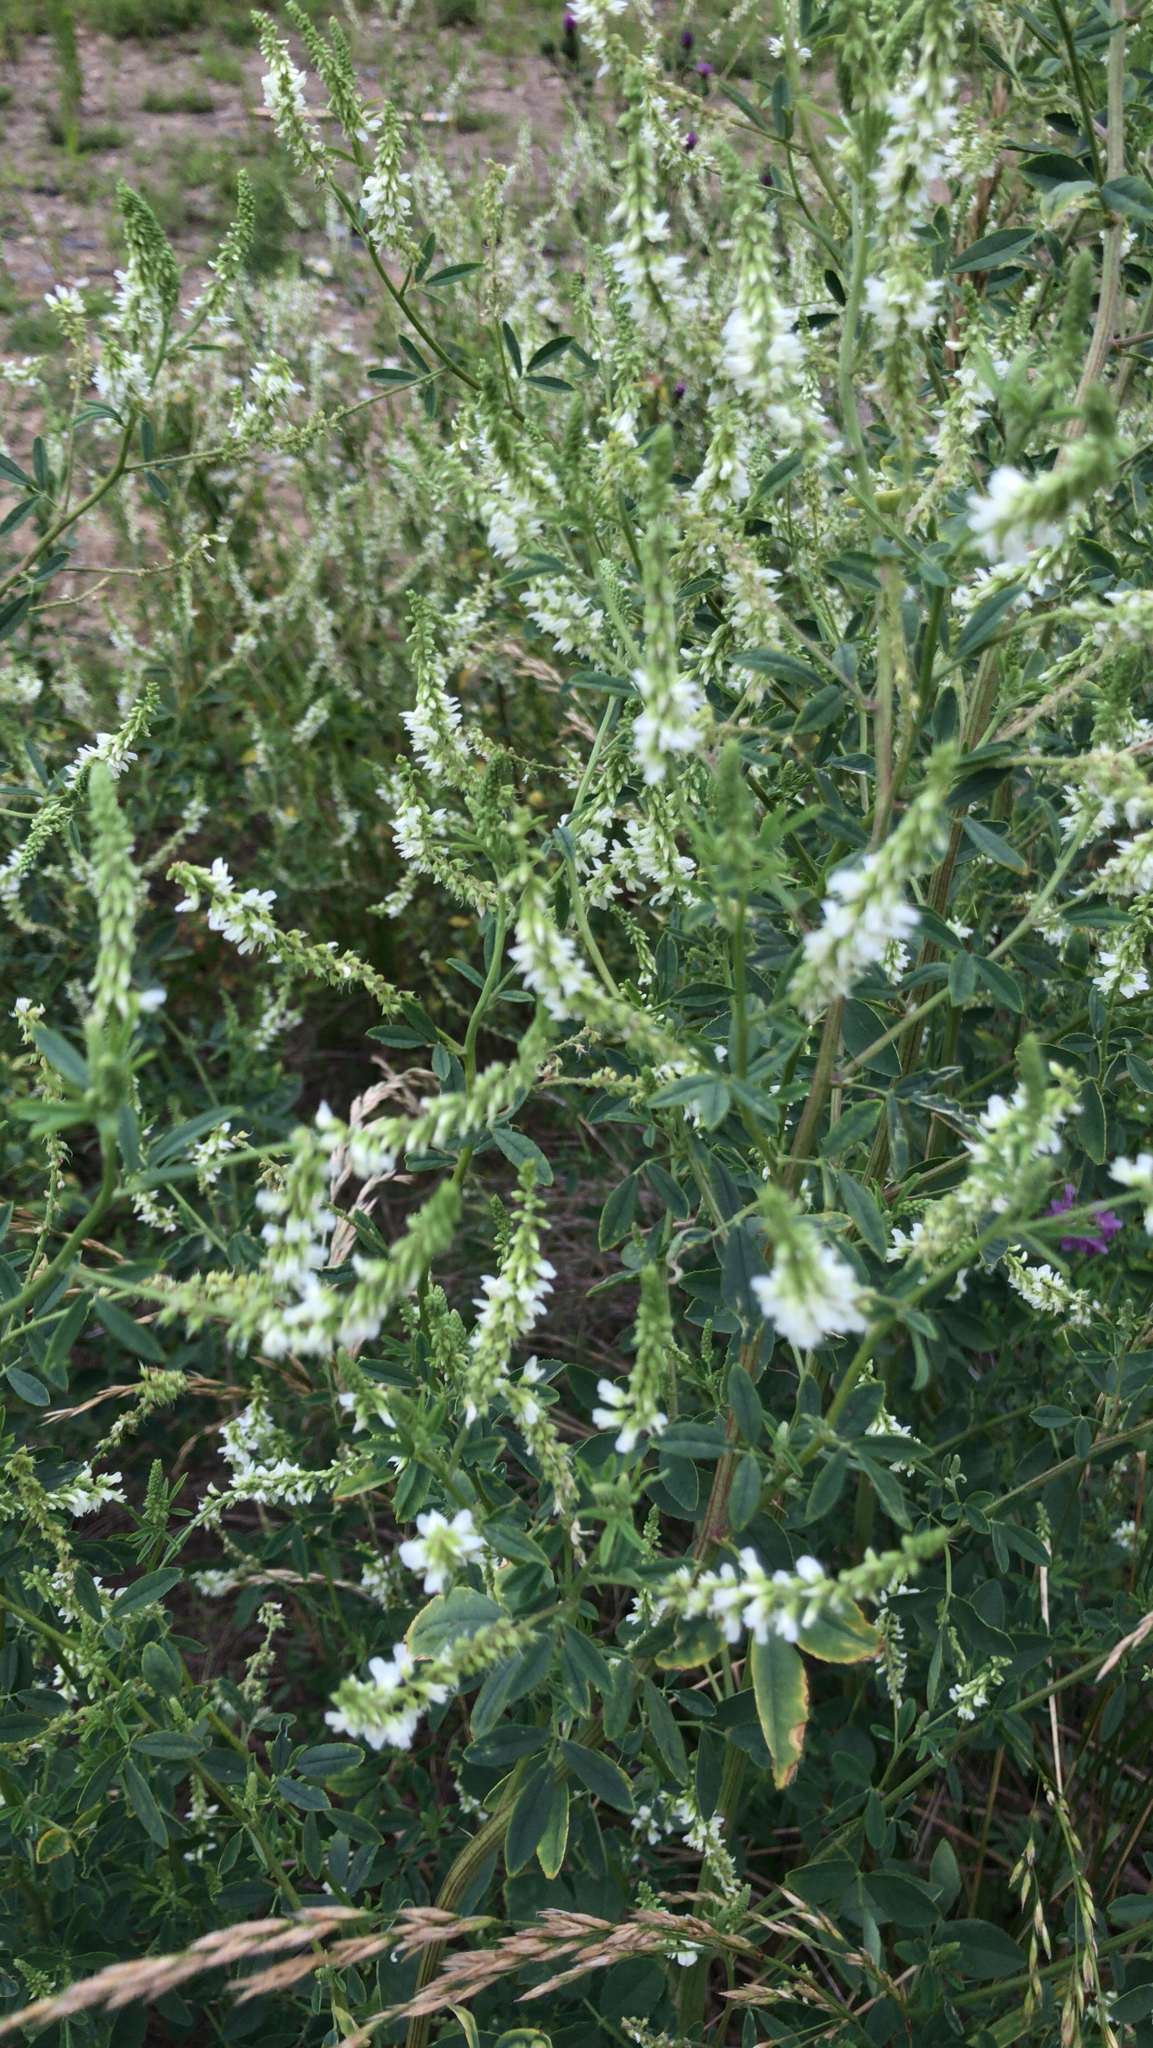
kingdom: Plantae
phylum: Tracheophyta
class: Magnoliopsida
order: Fabales
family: Fabaceae
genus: Melilotus
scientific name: Melilotus albus
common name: White melilot
